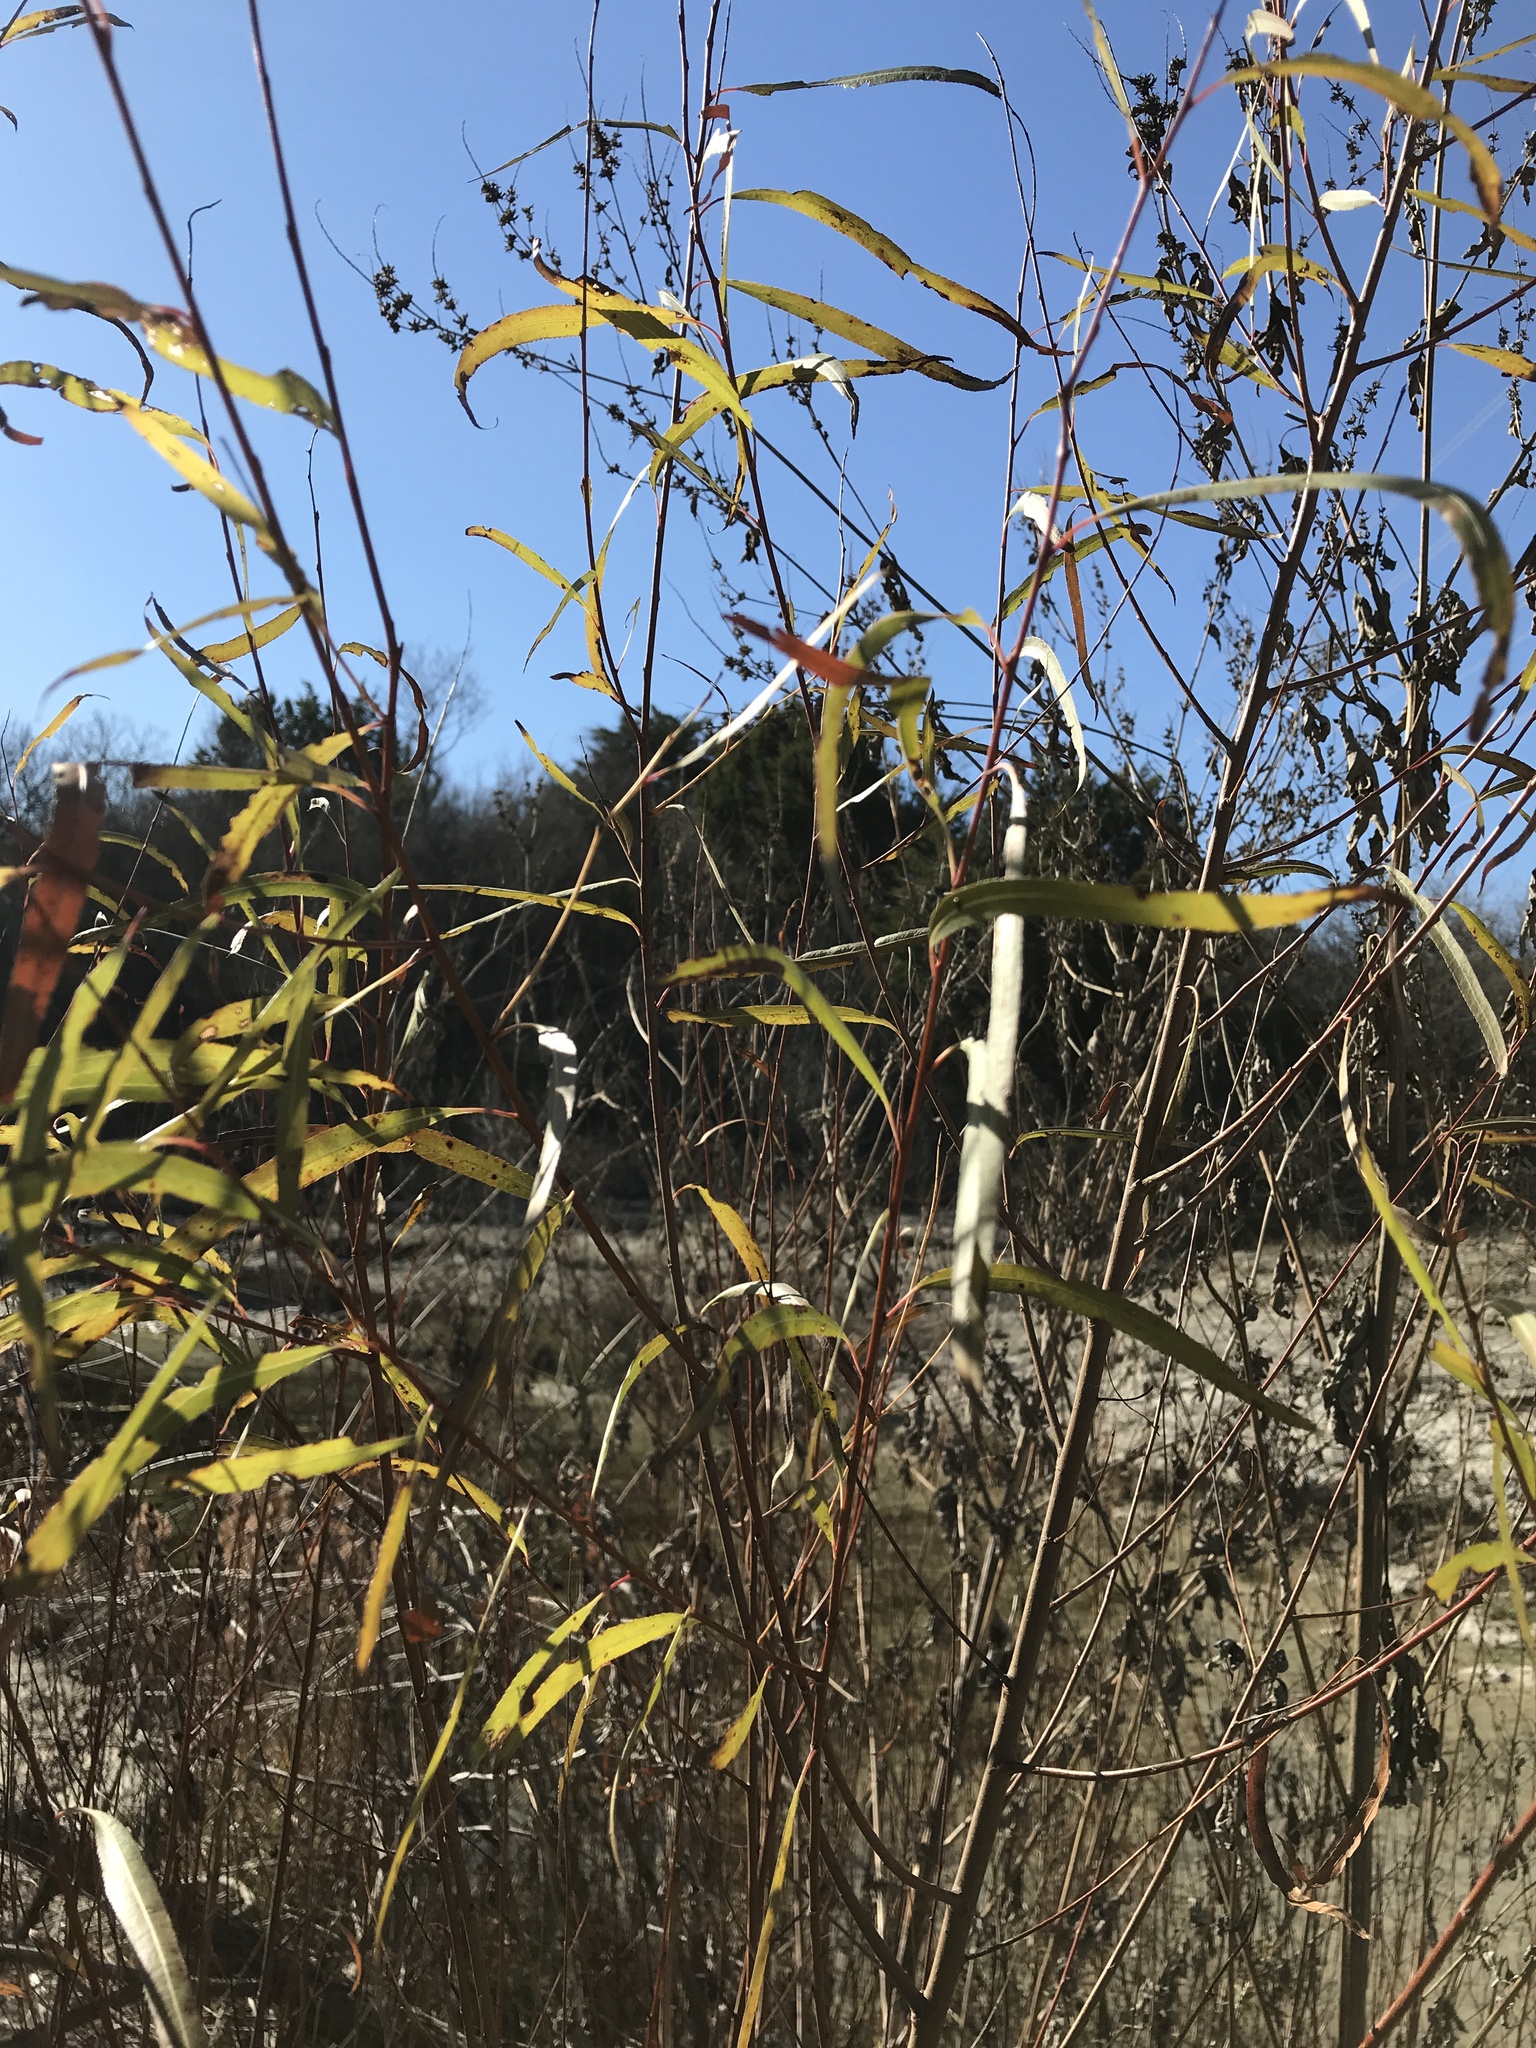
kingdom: Plantae
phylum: Tracheophyta
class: Magnoliopsida
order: Malpighiales
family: Salicaceae
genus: Salix
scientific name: Salix nigra
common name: Black willow
